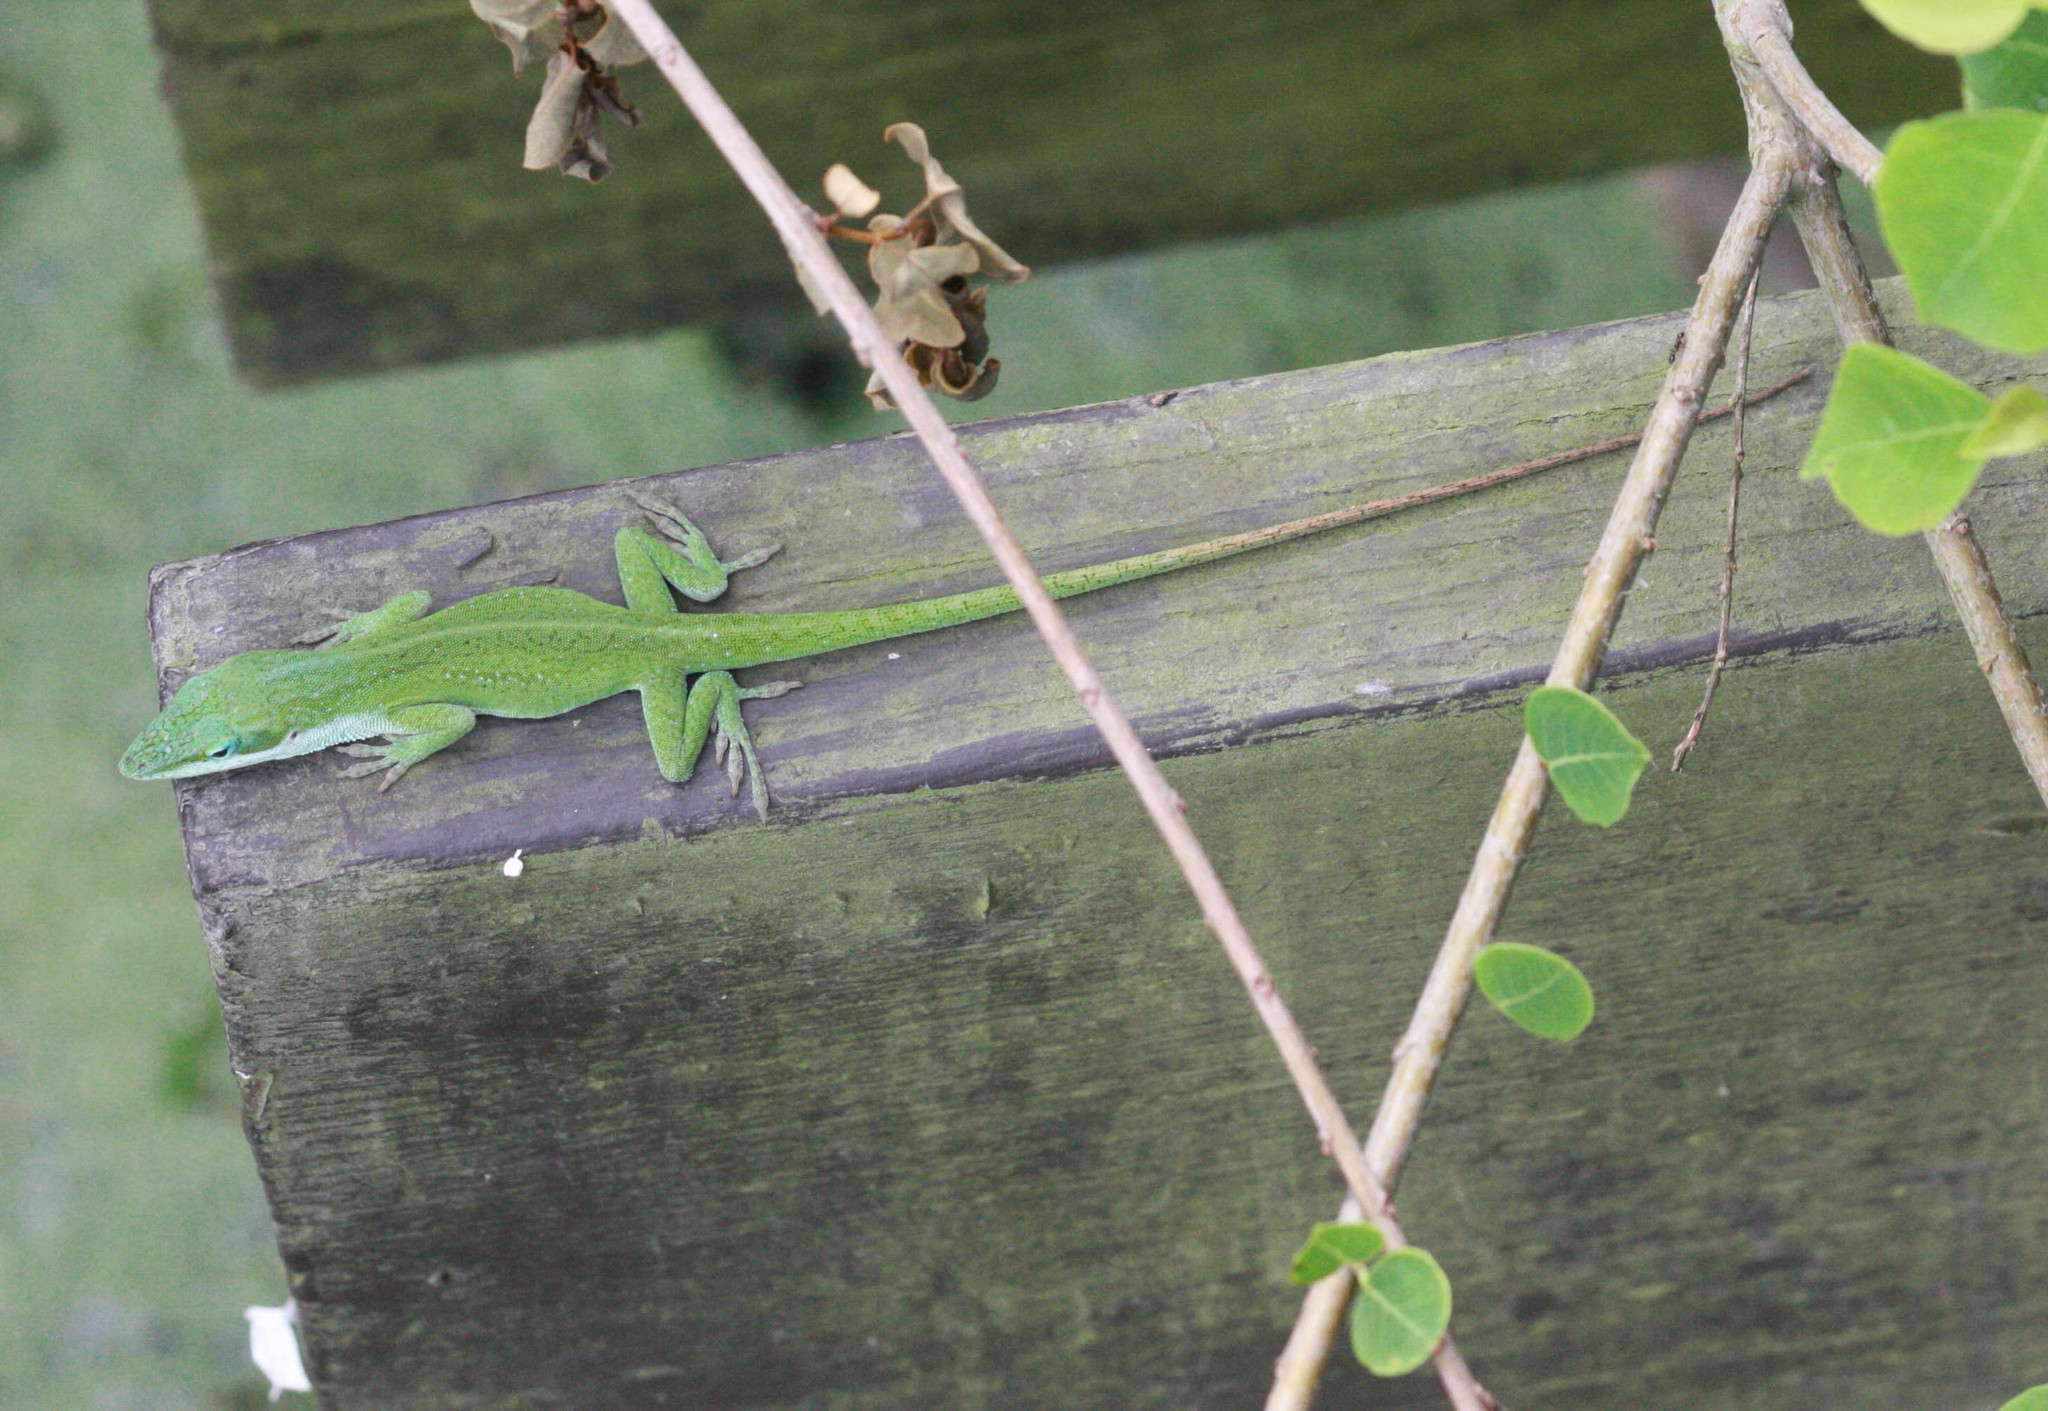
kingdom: Animalia
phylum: Chordata
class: Squamata
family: Dactyloidae
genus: Anolis
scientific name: Anolis carolinensis
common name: Green anole
